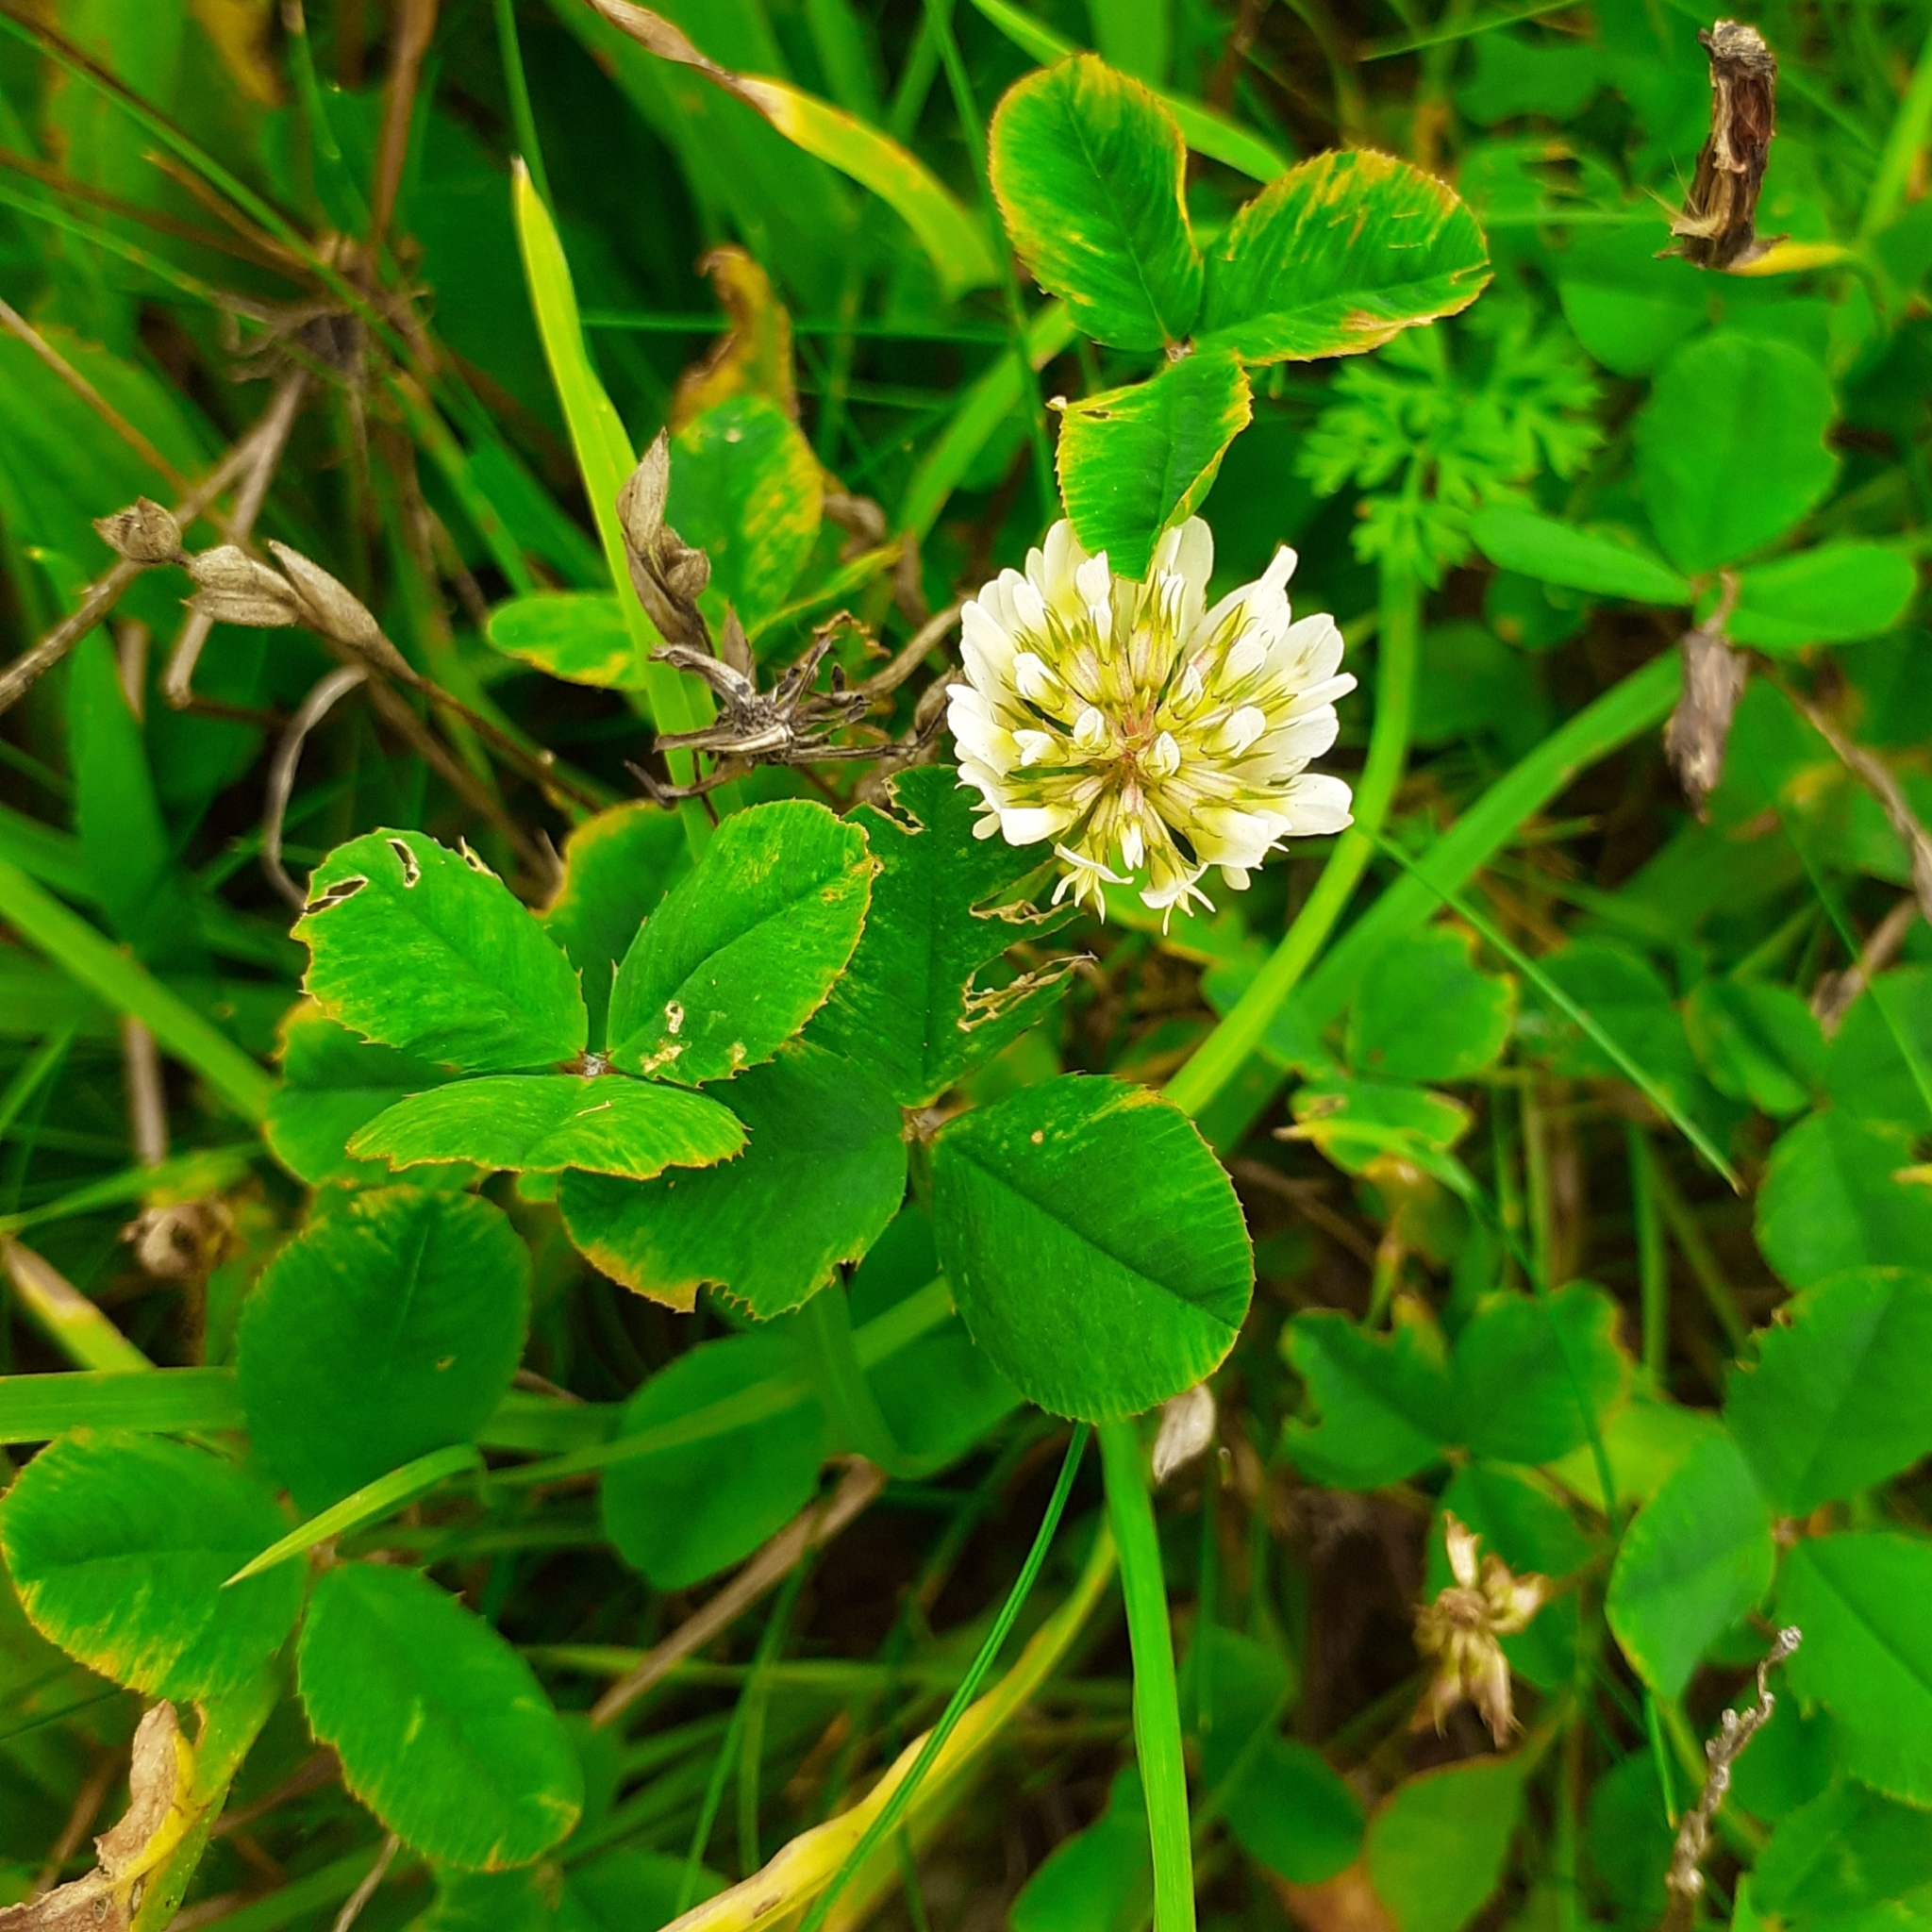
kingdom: Plantae
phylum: Tracheophyta
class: Magnoliopsida
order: Fabales
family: Fabaceae
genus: Trifolium
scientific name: Trifolium repens
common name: White clover
